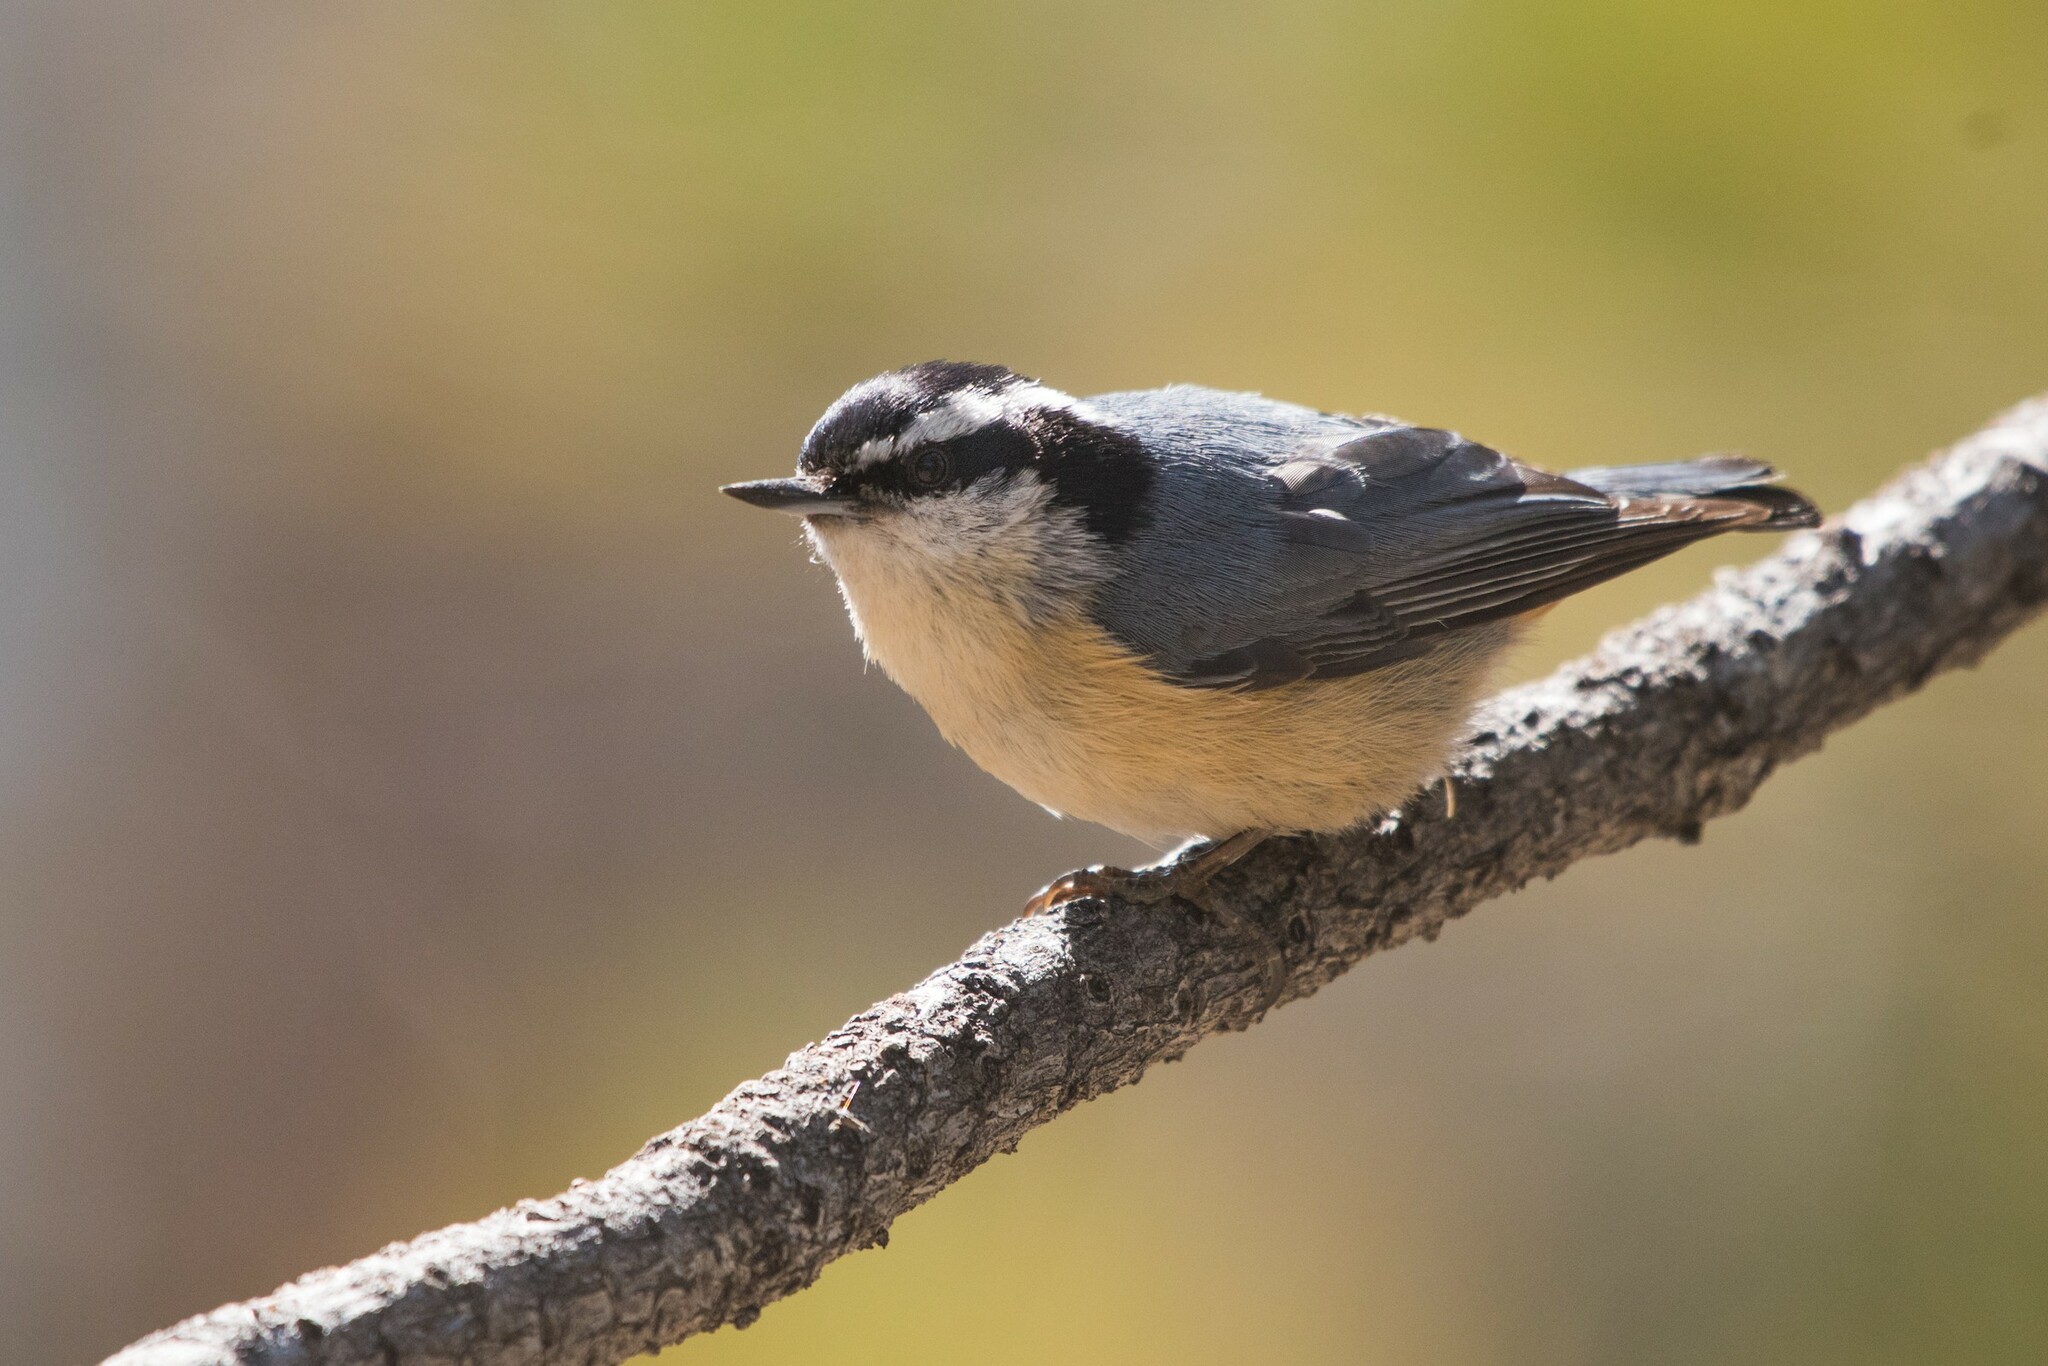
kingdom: Animalia
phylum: Chordata
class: Aves
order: Passeriformes
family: Sittidae
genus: Sitta
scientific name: Sitta canadensis
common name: Red-breasted nuthatch
